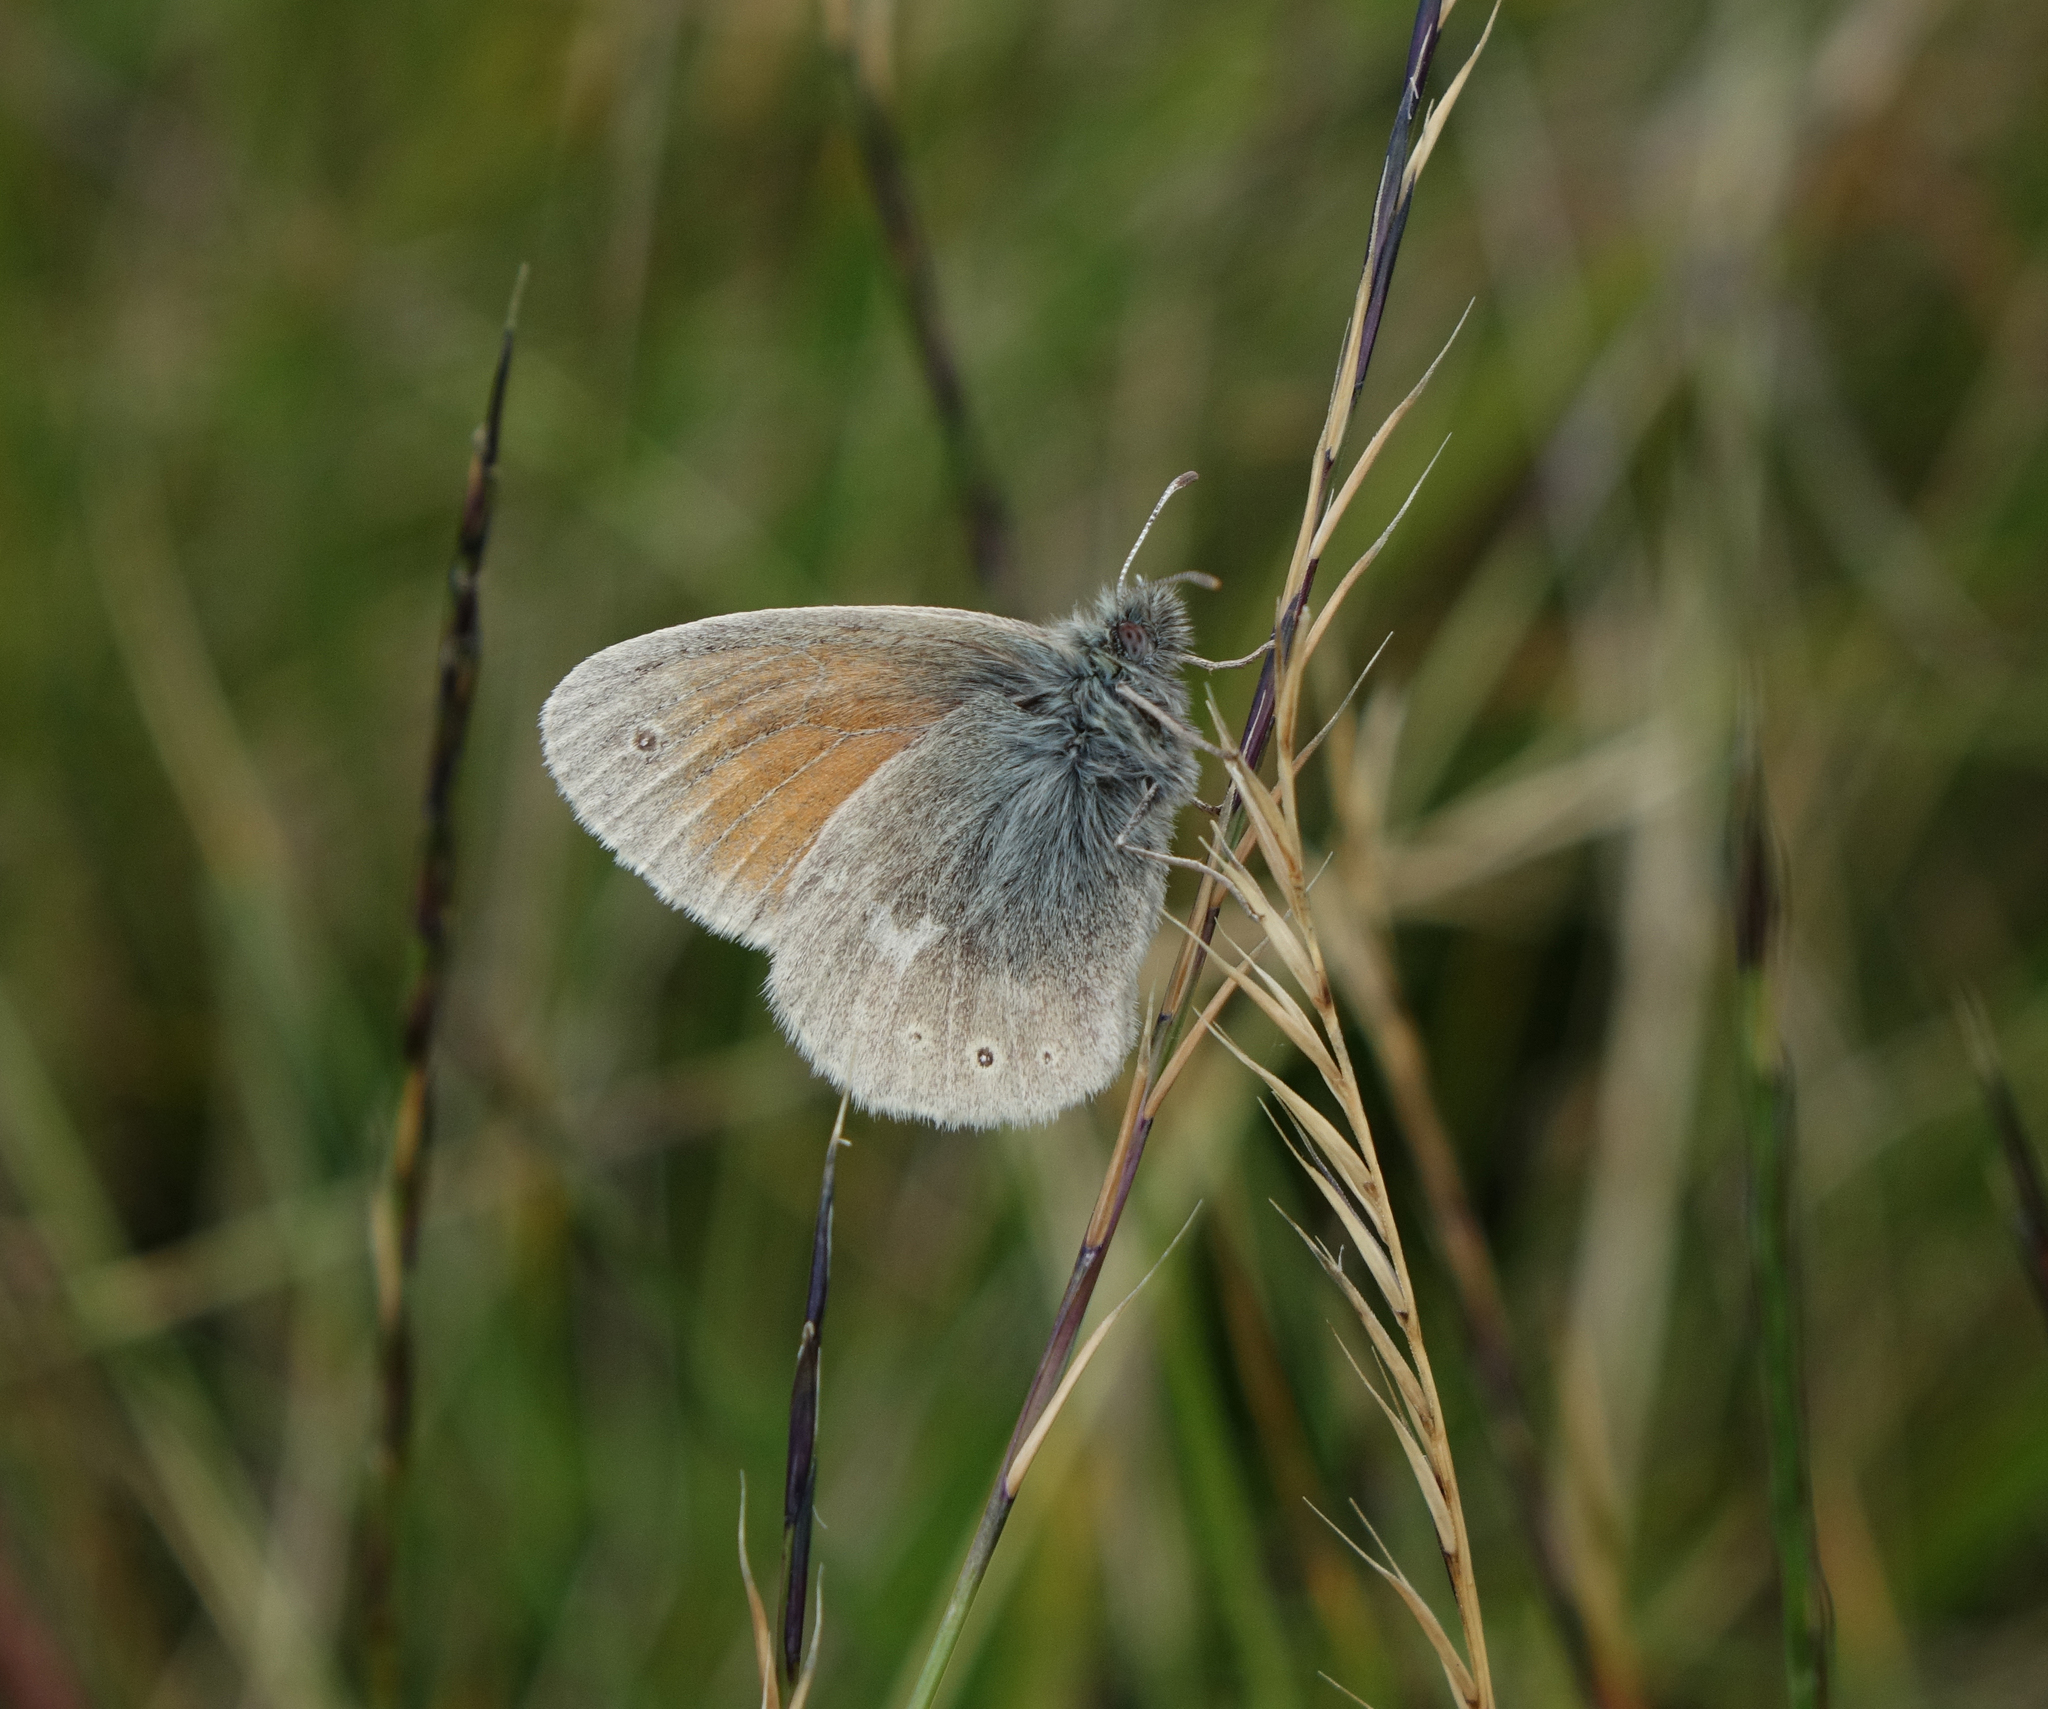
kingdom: Animalia
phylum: Arthropoda
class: Insecta
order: Lepidoptera
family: Nymphalidae
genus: Coenonympha
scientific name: Coenonympha tullia
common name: Large heath
